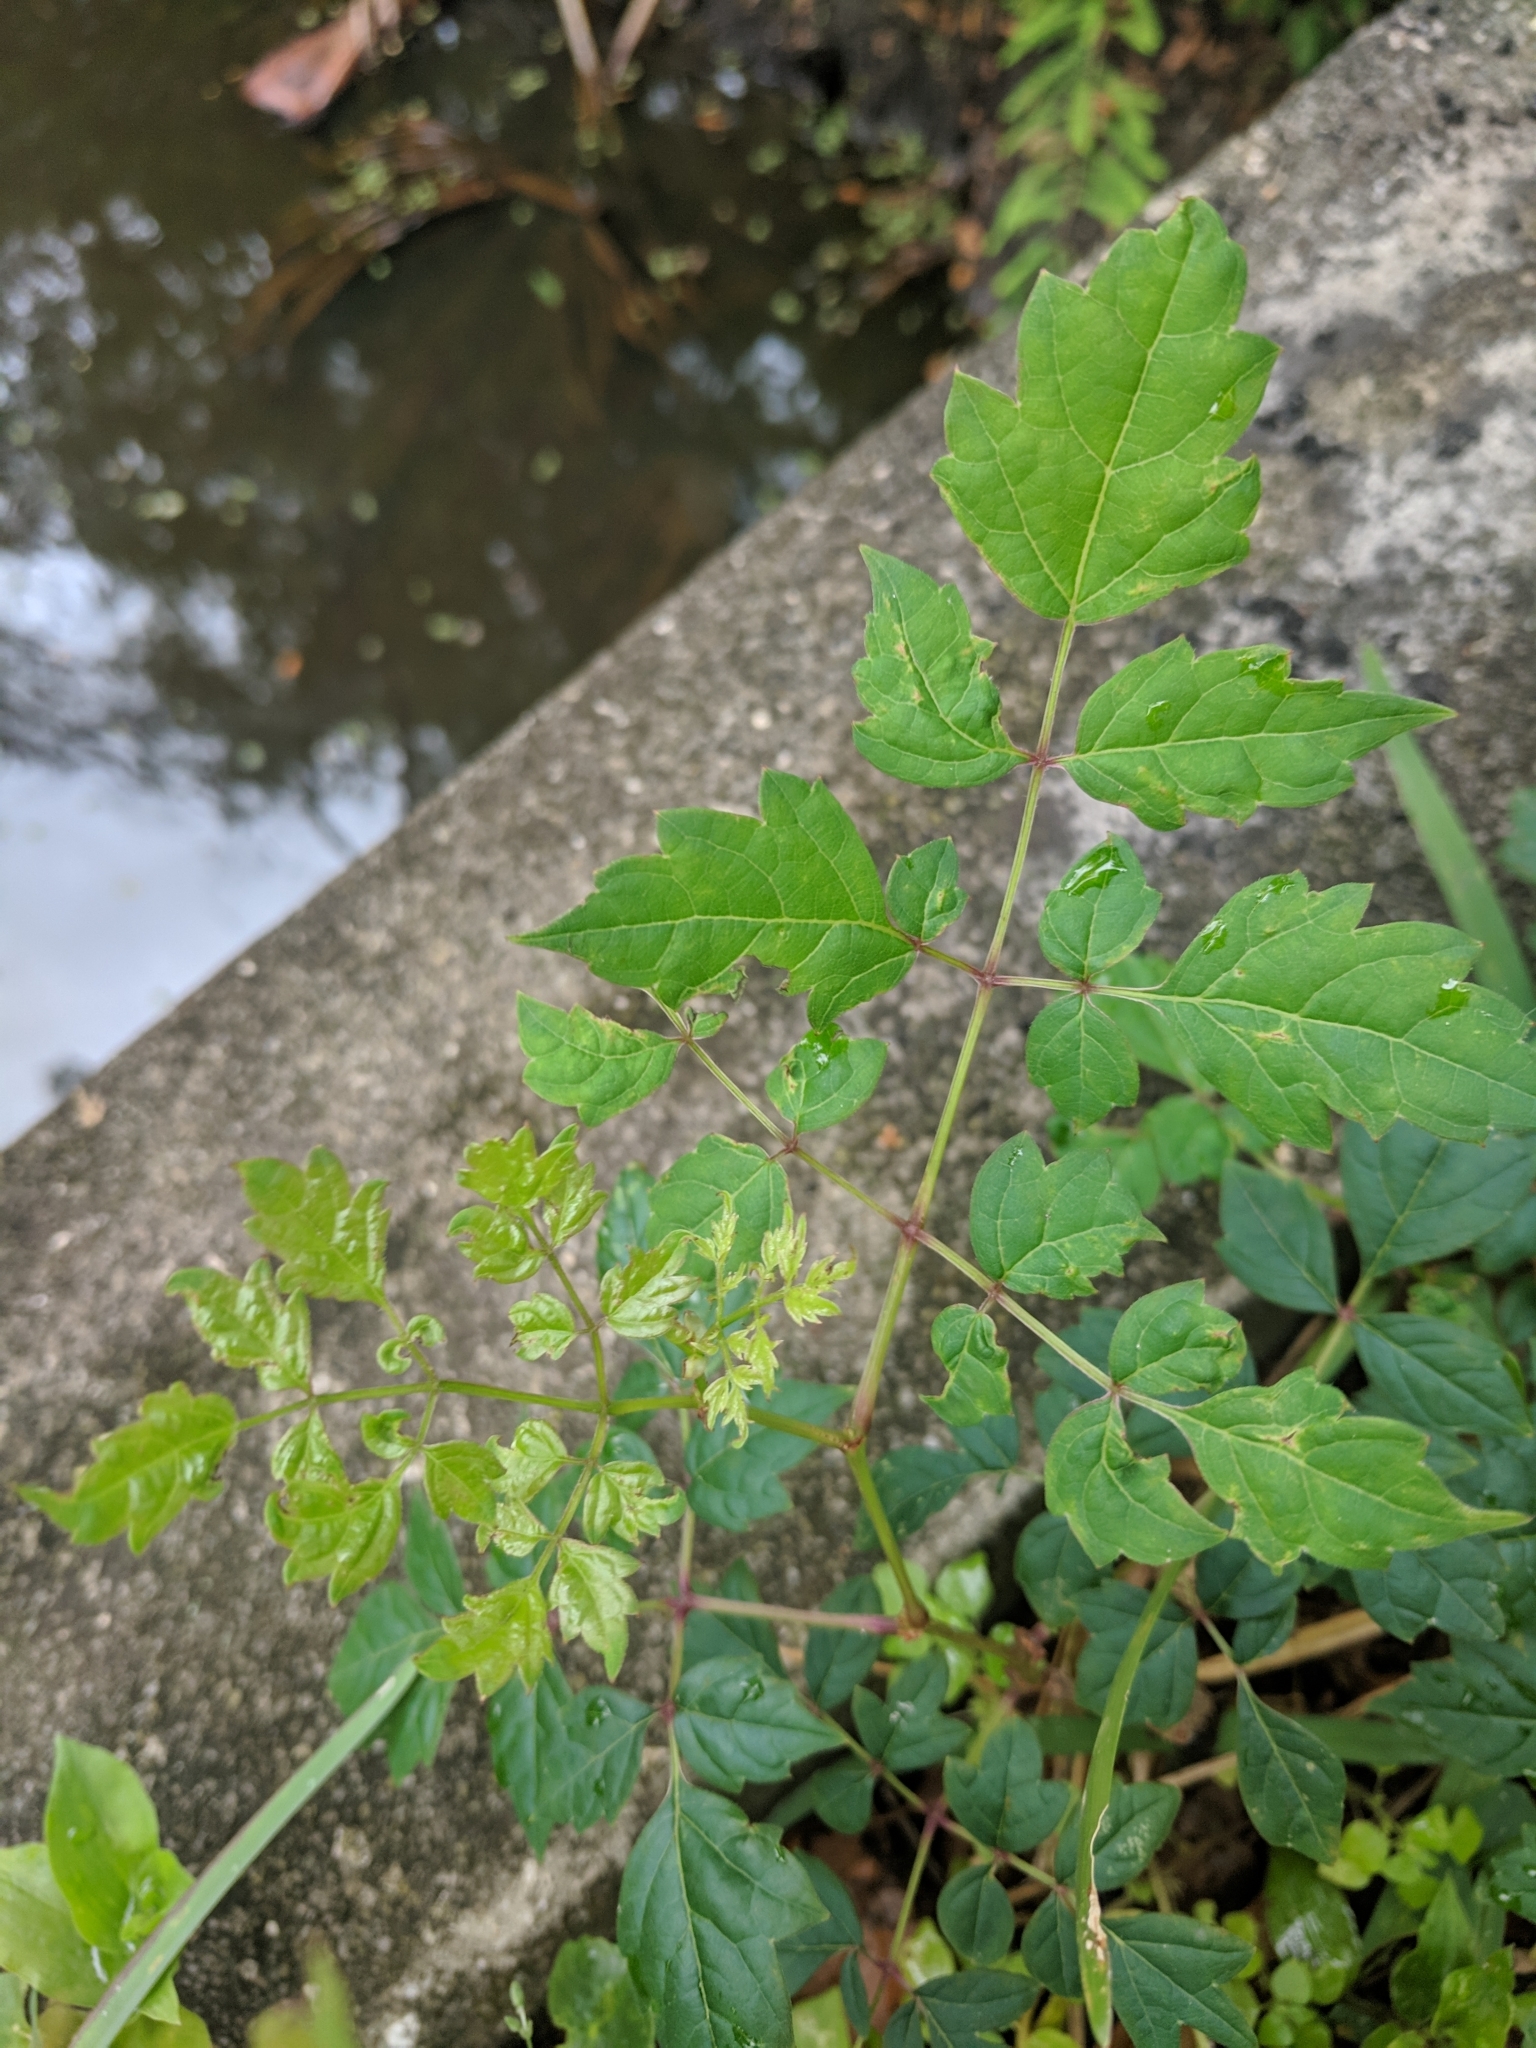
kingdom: Plantae
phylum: Tracheophyta
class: Magnoliopsida
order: Vitales
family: Vitaceae
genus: Nekemias
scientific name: Nekemias arborea
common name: Peppervine
